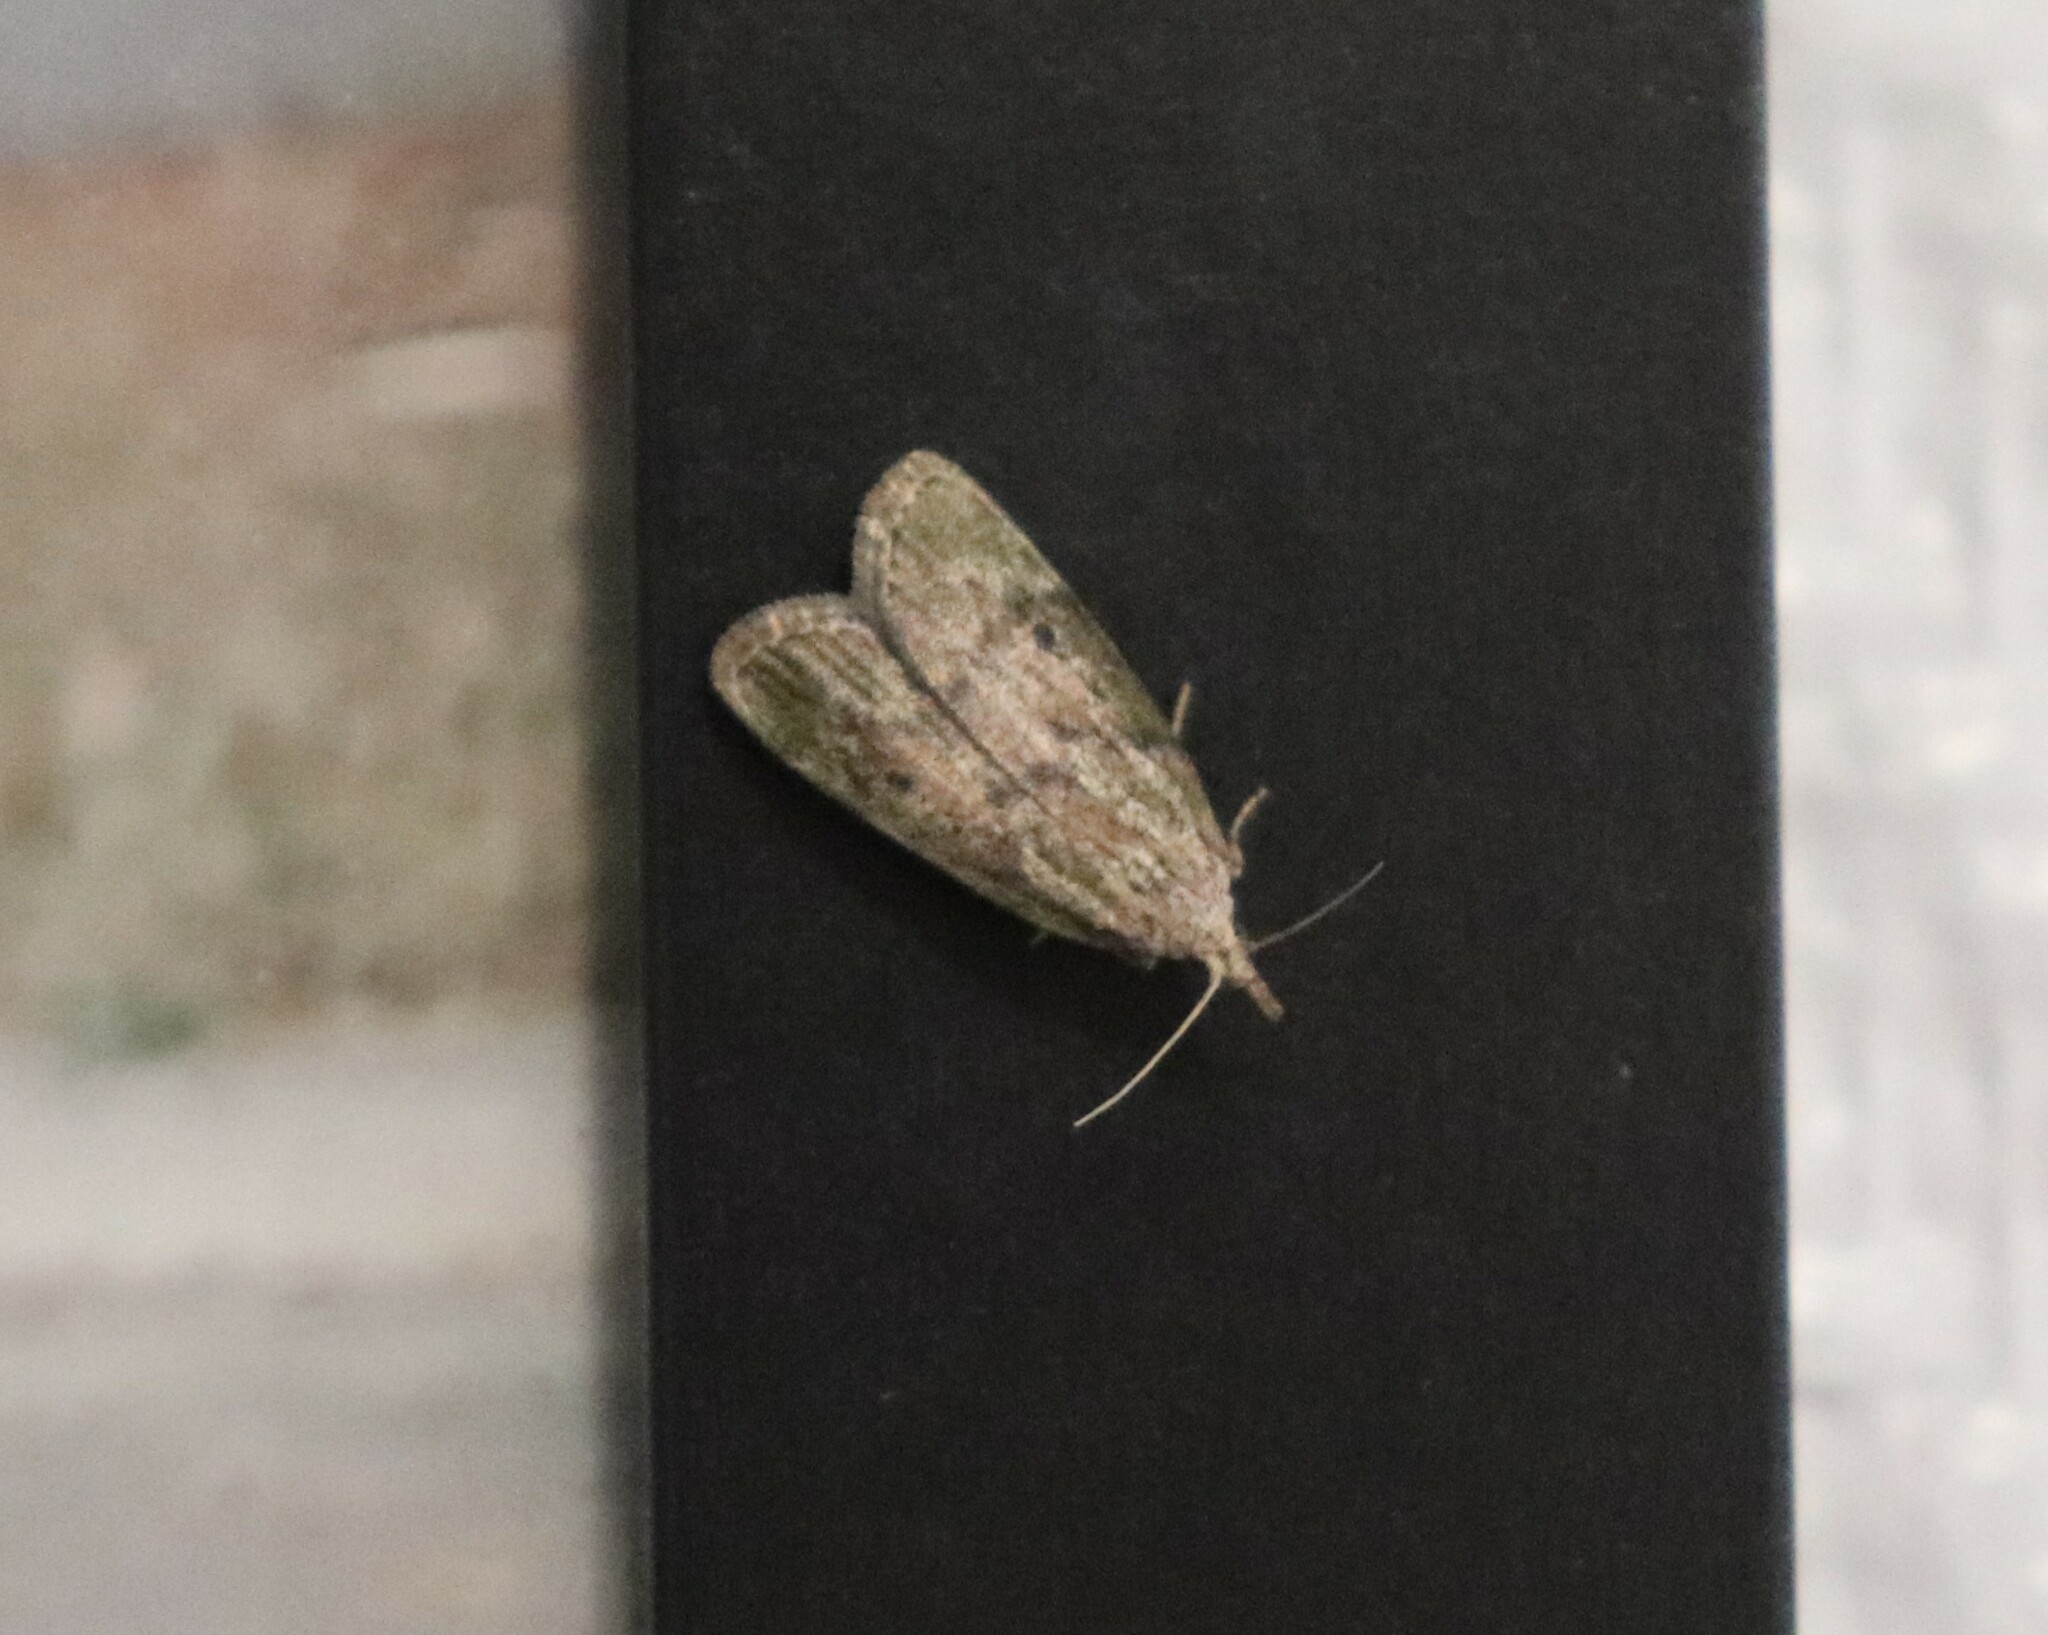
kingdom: Animalia
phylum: Arthropoda
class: Insecta
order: Lepidoptera
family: Pyralidae
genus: Aphomia
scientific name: Aphomia sociella
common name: Bee moth
